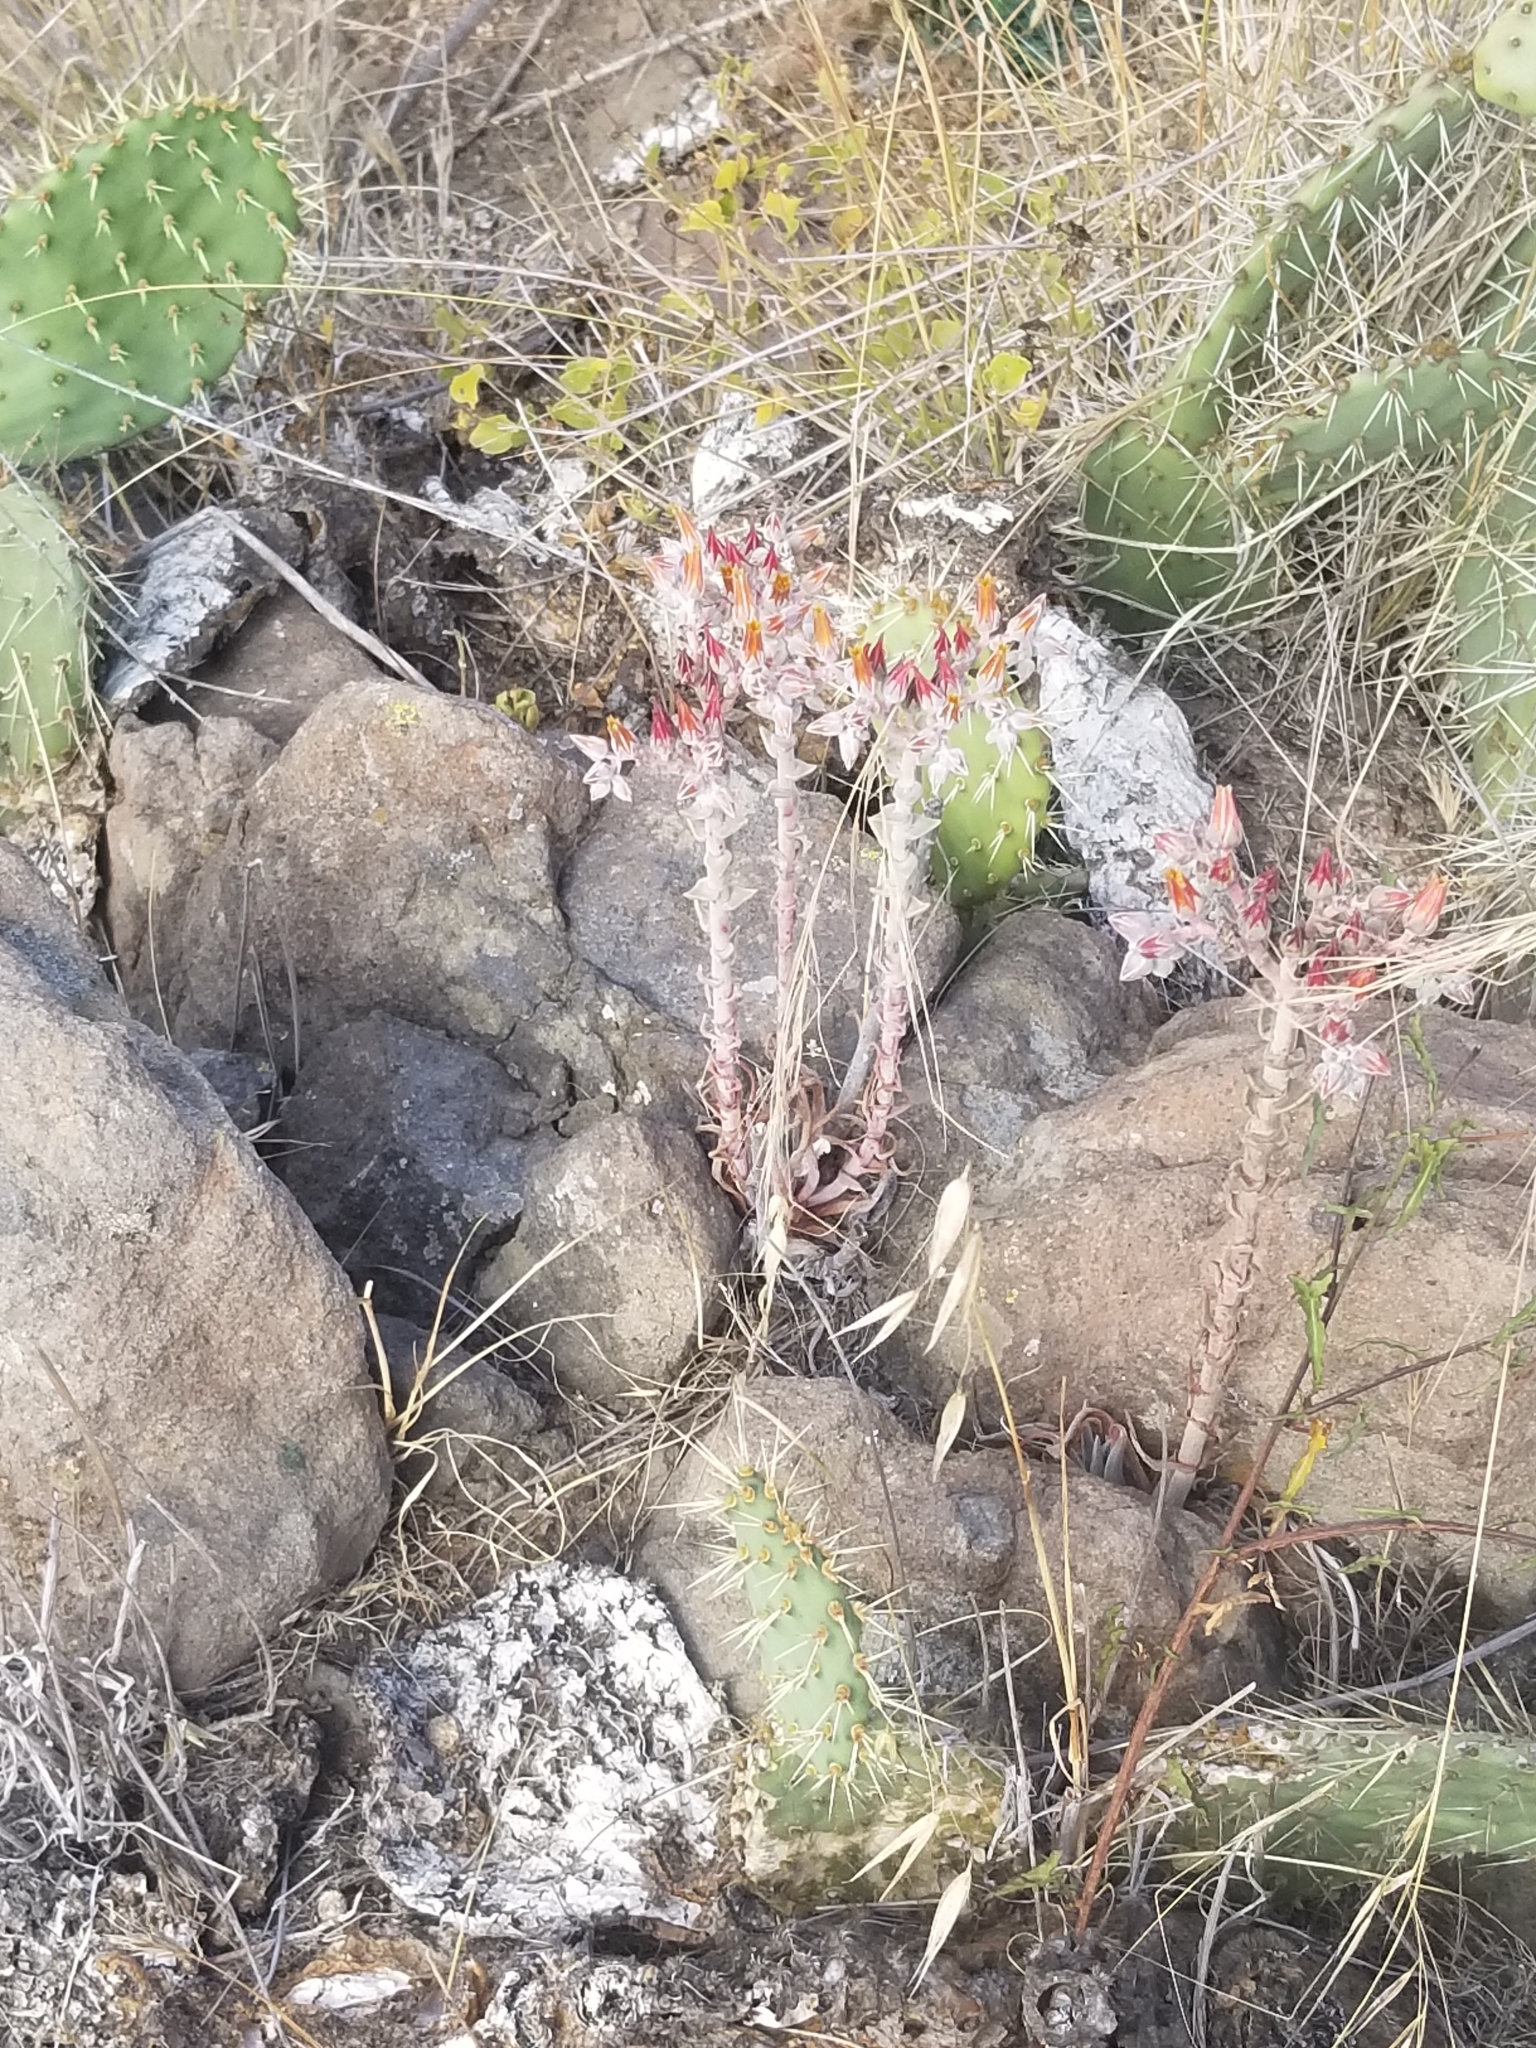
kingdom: Plantae
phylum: Tracheophyta
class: Magnoliopsida
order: Saxifragales
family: Crassulaceae
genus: Dudleya
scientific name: Dudleya lanceolata
